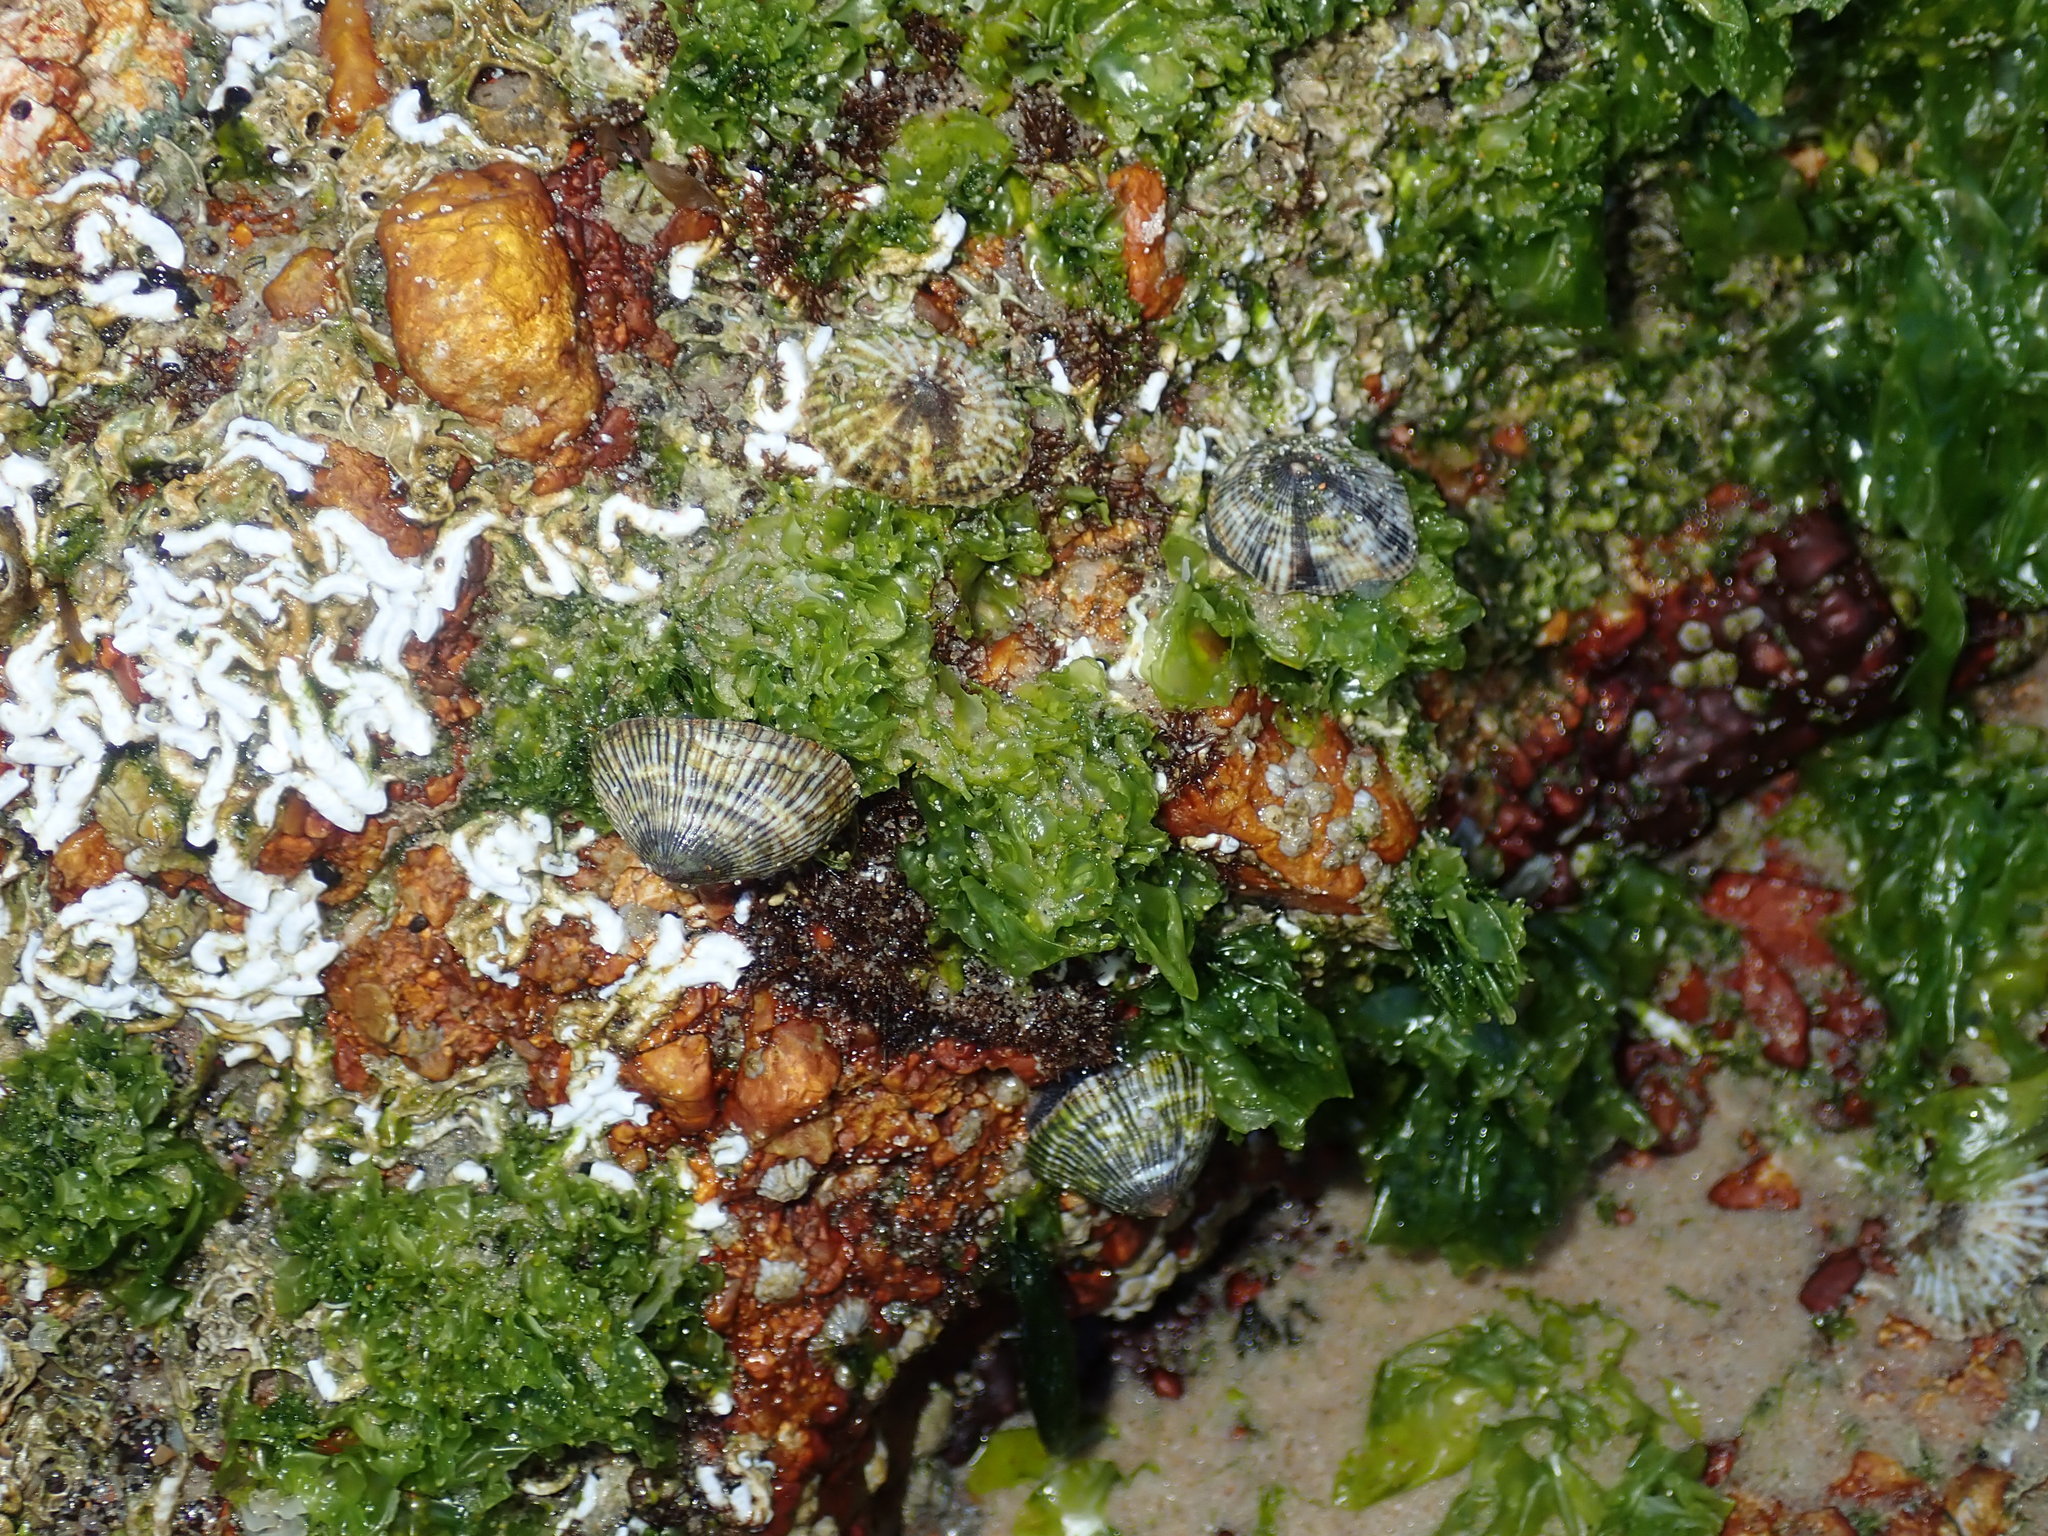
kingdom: Animalia
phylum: Mollusca
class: Gastropoda
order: Siphonariida
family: Siphonariidae
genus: Siphonaria
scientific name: Siphonaria funiculata
